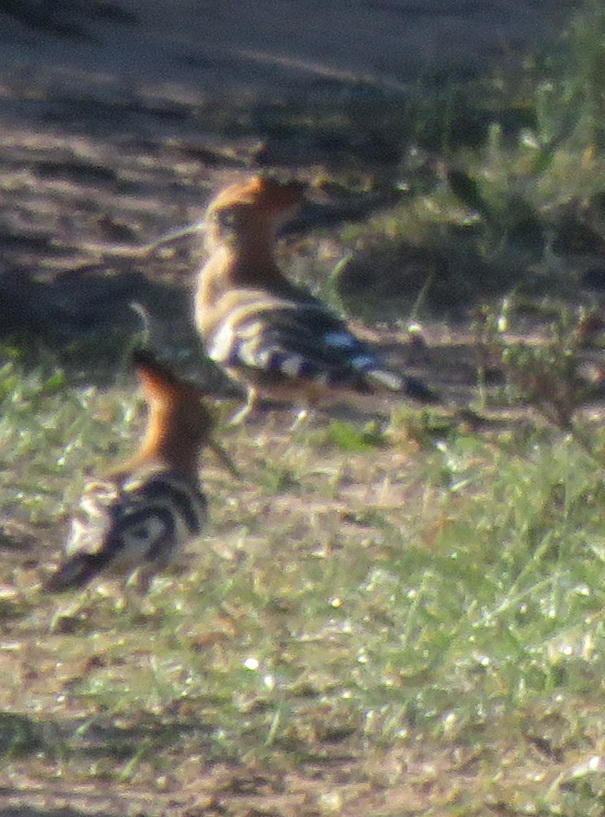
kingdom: Animalia
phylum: Chordata
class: Aves
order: Bucerotiformes
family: Upupidae
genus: Upupa
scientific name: Upupa africana
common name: African hoopoe
